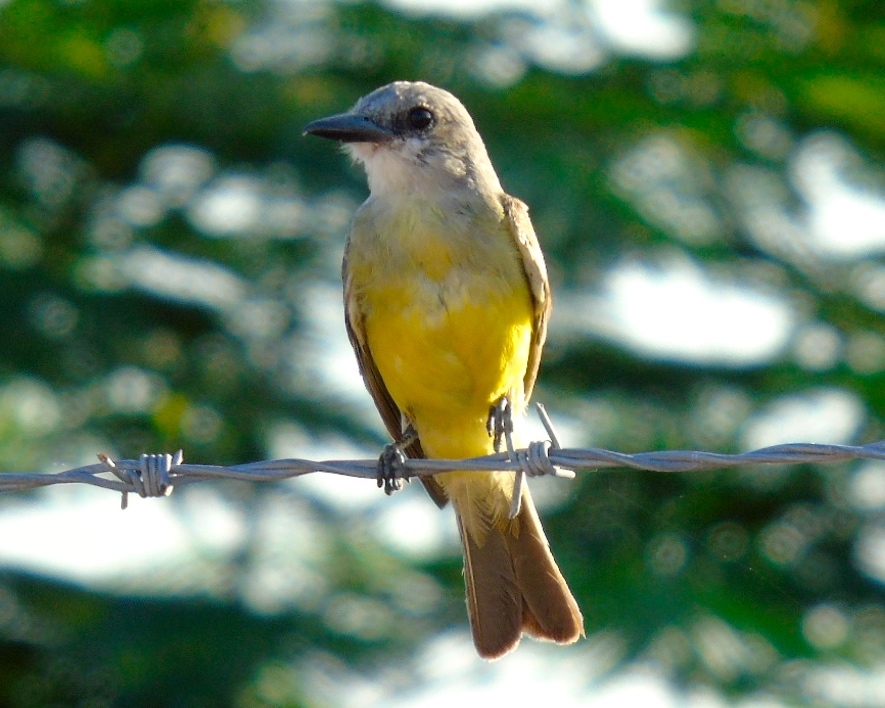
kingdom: Animalia
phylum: Chordata
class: Aves
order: Passeriformes
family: Tyrannidae
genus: Tyrannus
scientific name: Tyrannus melancholicus
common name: Tropical kingbird
